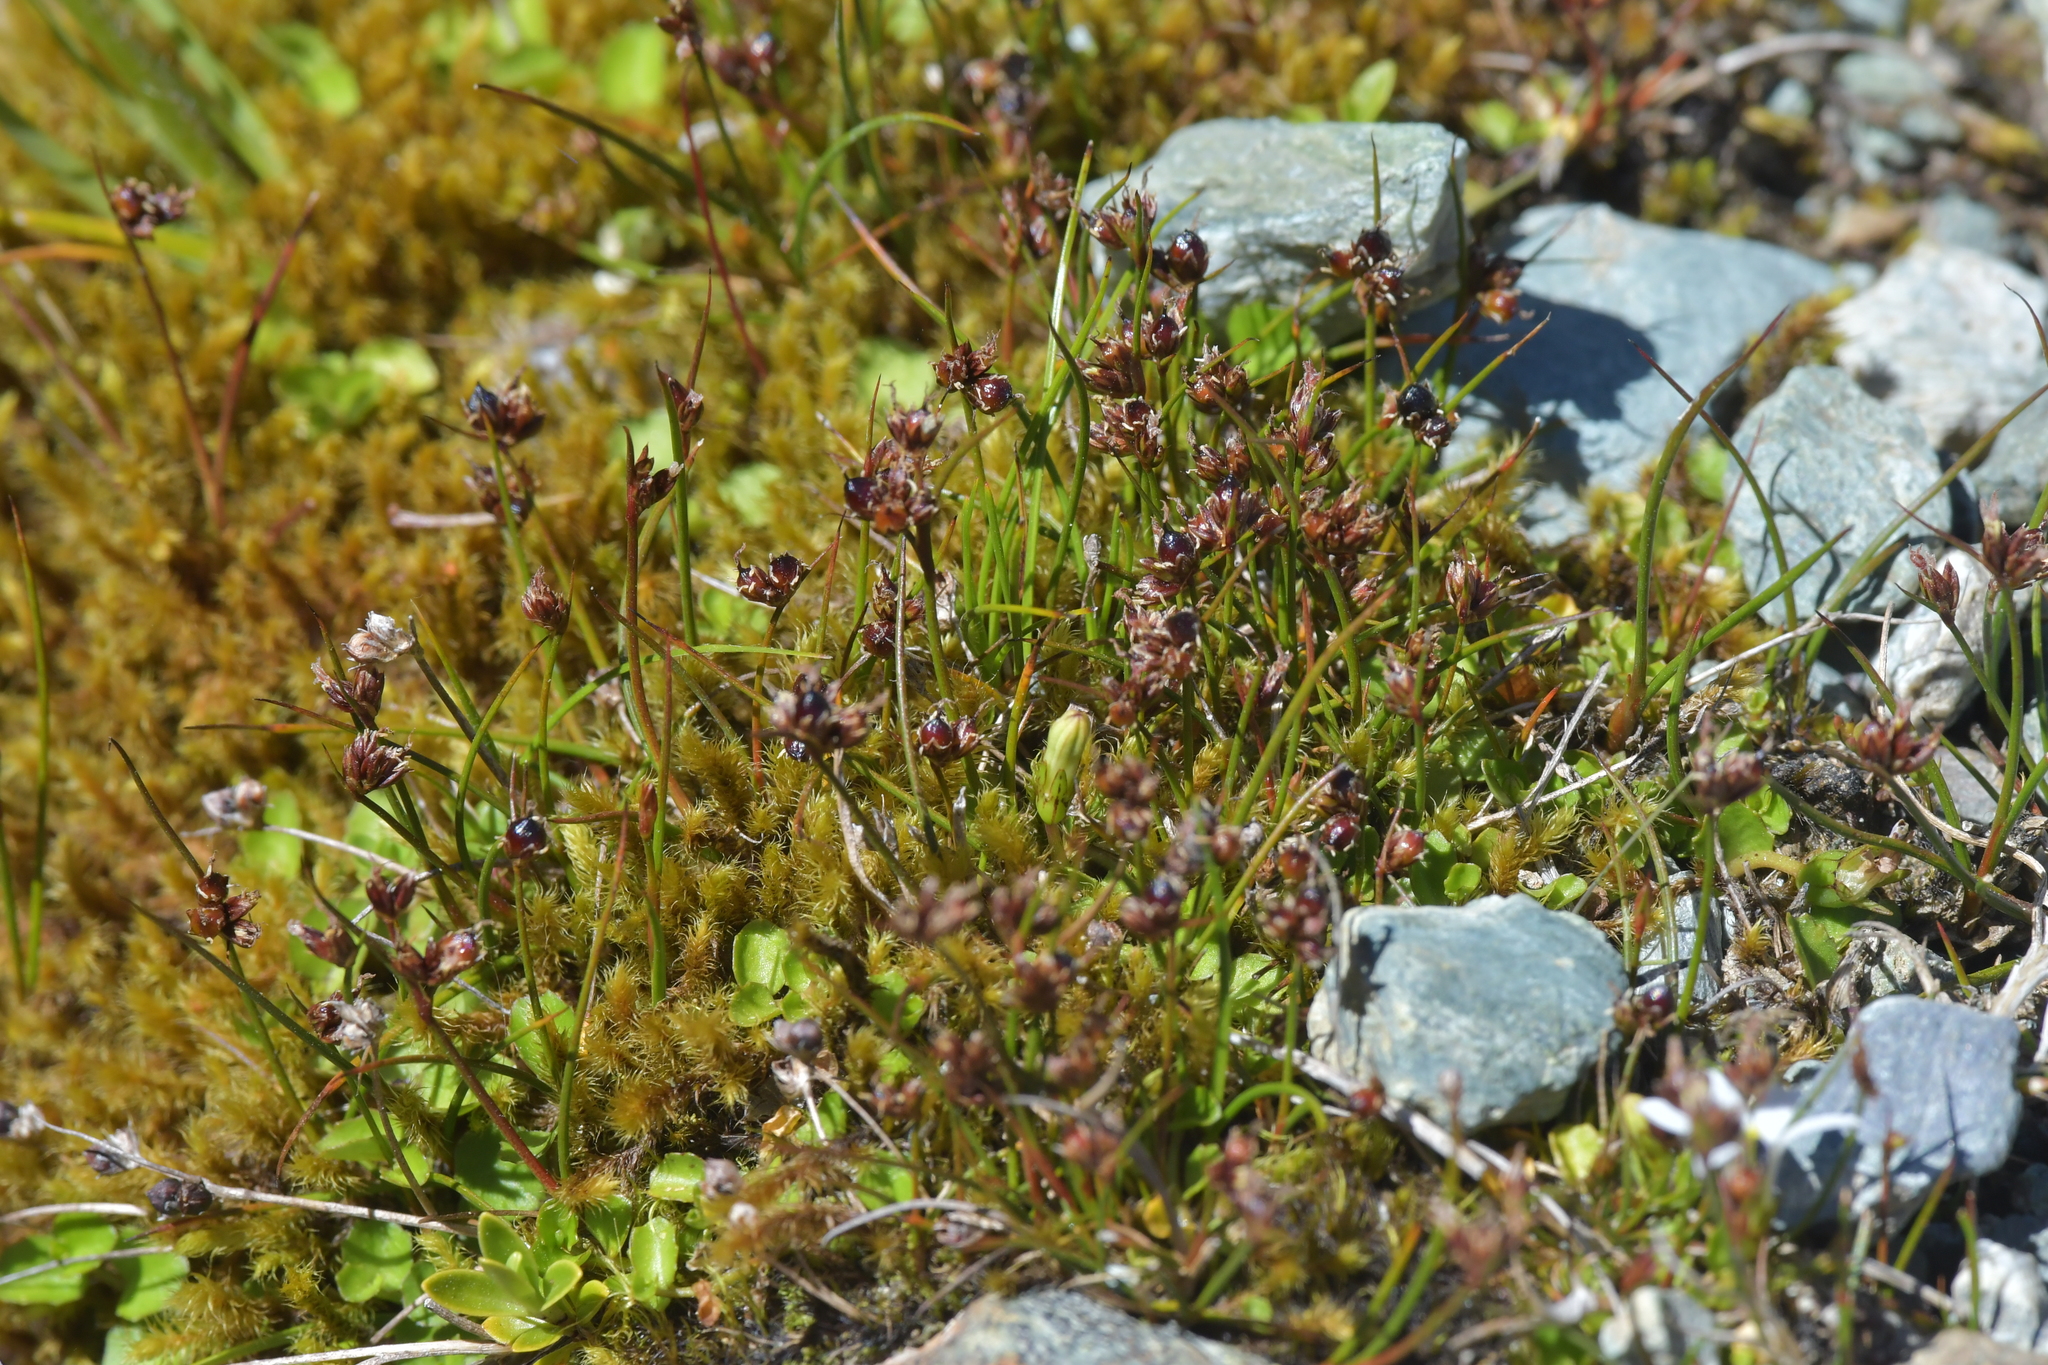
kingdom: Plantae
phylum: Tracheophyta
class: Liliopsida
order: Poales
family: Juncaceae
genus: Juncus
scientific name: Juncus novae-zelandiae
